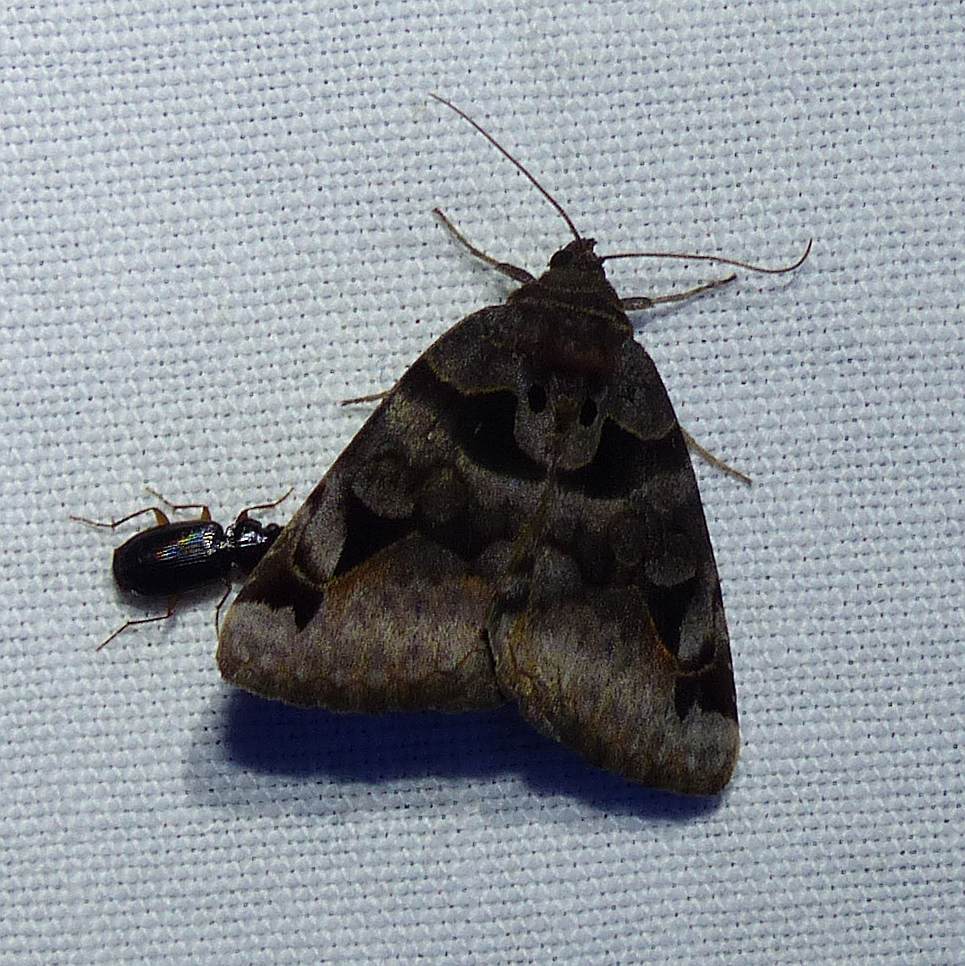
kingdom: Animalia
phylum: Arthropoda
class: Insecta
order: Lepidoptera
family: Erebidae
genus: Euclidia
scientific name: Euclidia cuspidea
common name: Toothed somberwing
